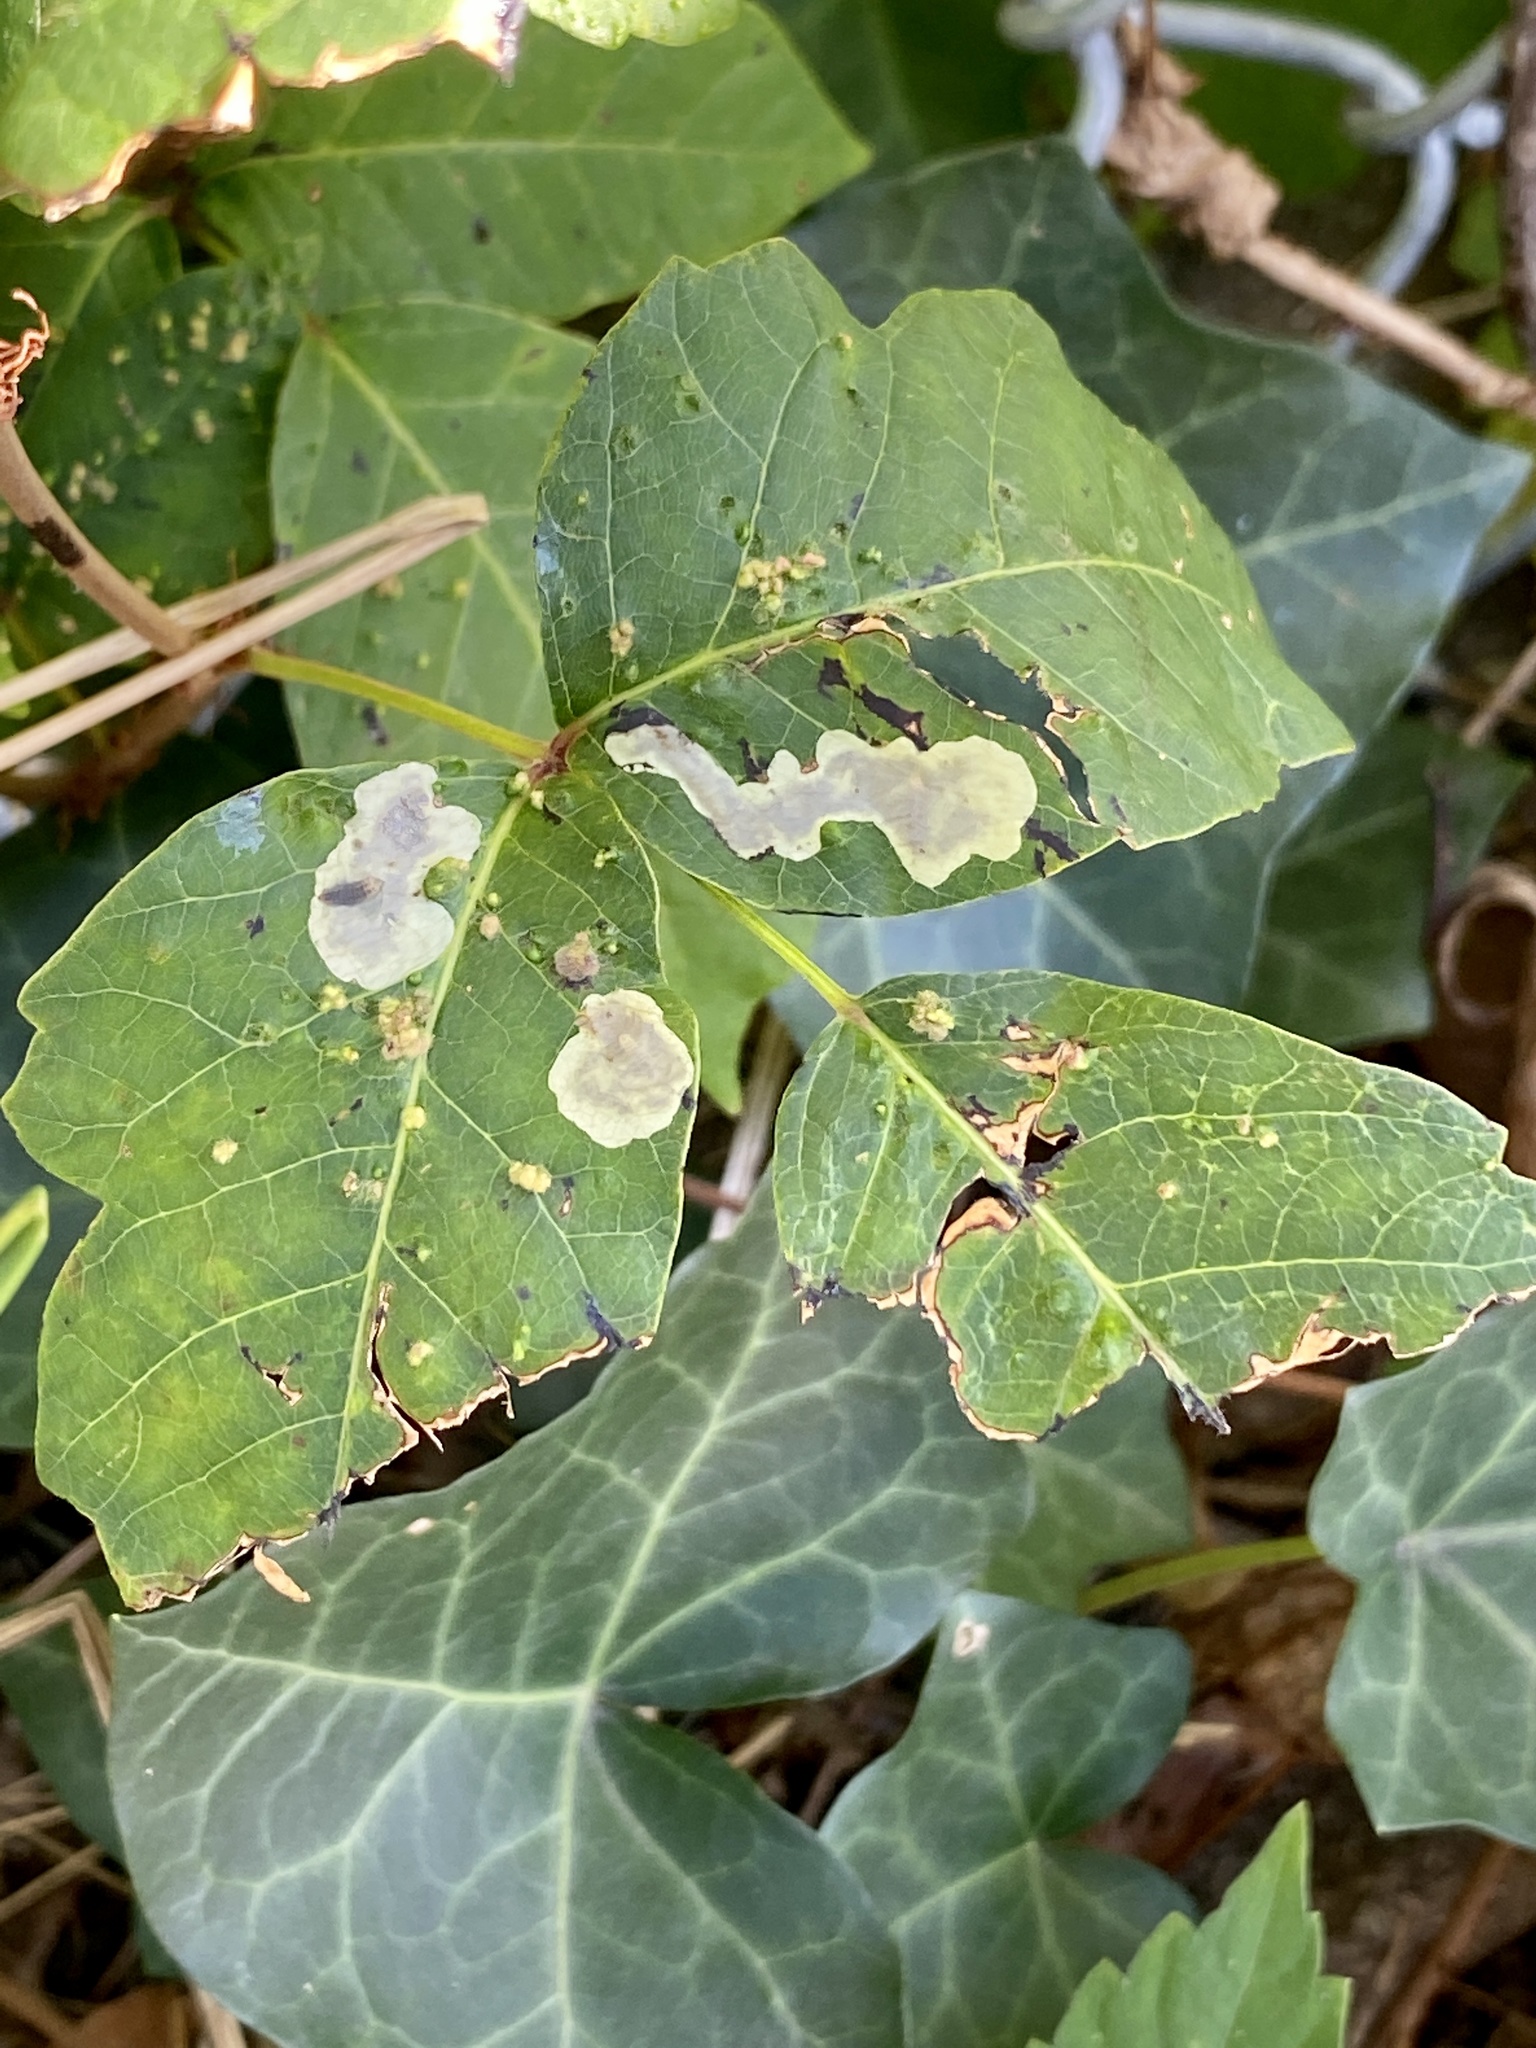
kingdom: Animalia
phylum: Arthropoda
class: Insecta
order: Lepidoptera
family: Gracillariidae
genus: Cameraria
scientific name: Cameraria guttifinitella
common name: Poison ivy leaf-miner moth
